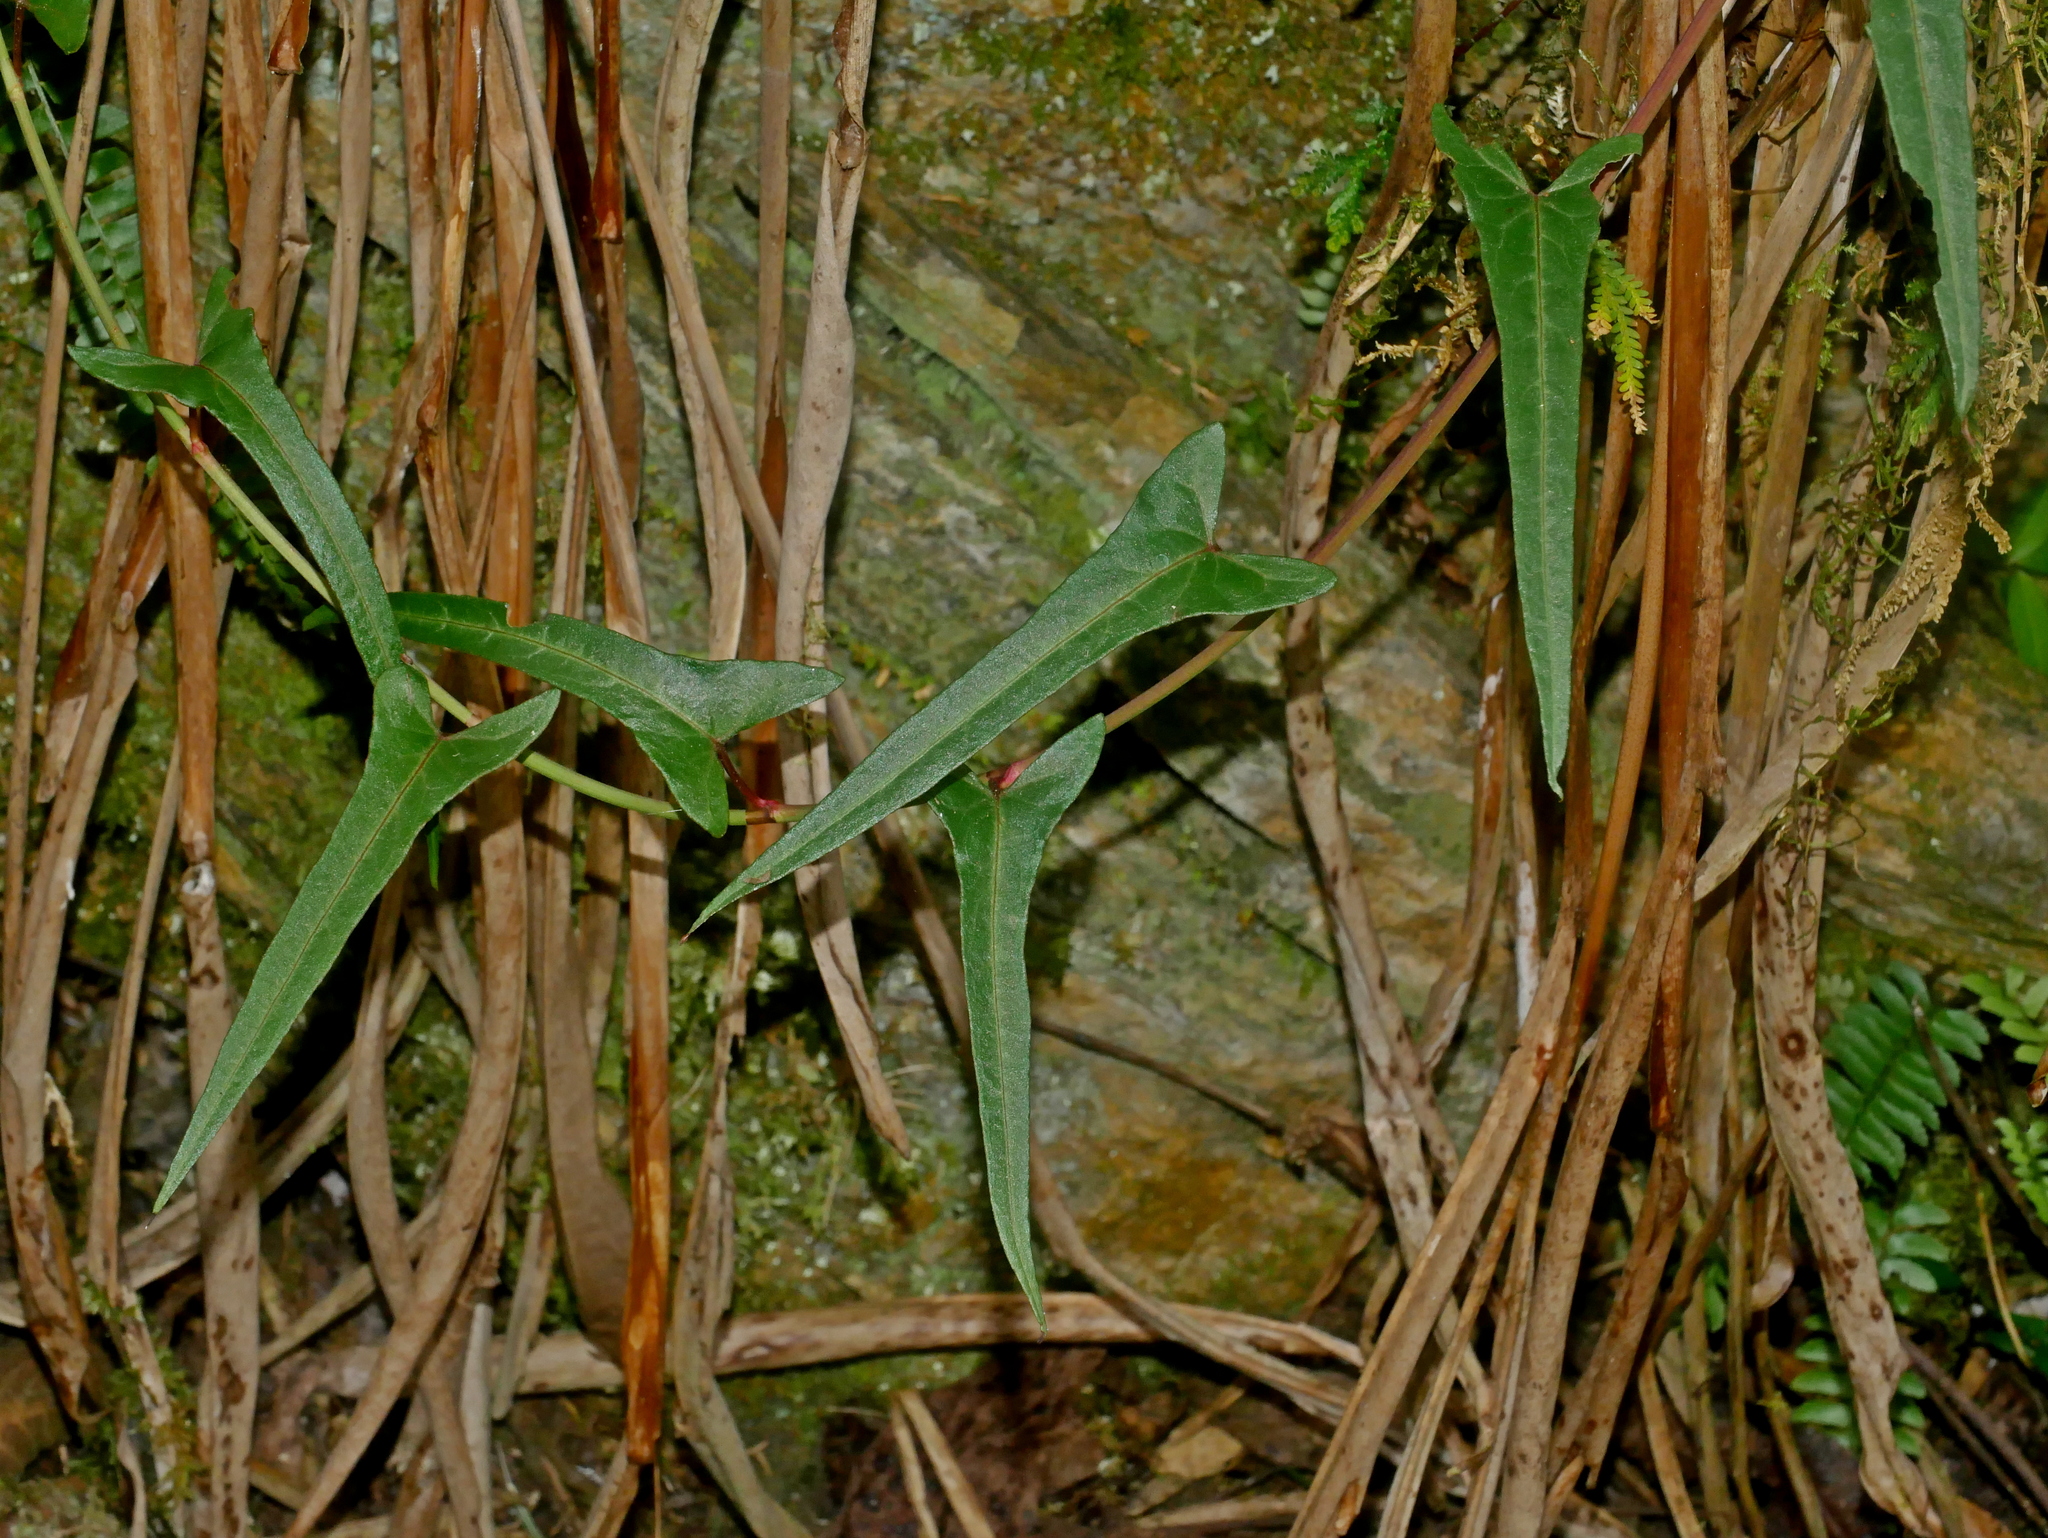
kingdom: Plantae
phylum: Tracheophyta
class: Magnoliopsida
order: Caryophyllales
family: Polygonaceae
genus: Reynoutria
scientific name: Reynoutria multiflora
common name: Chinese fleeceflower
